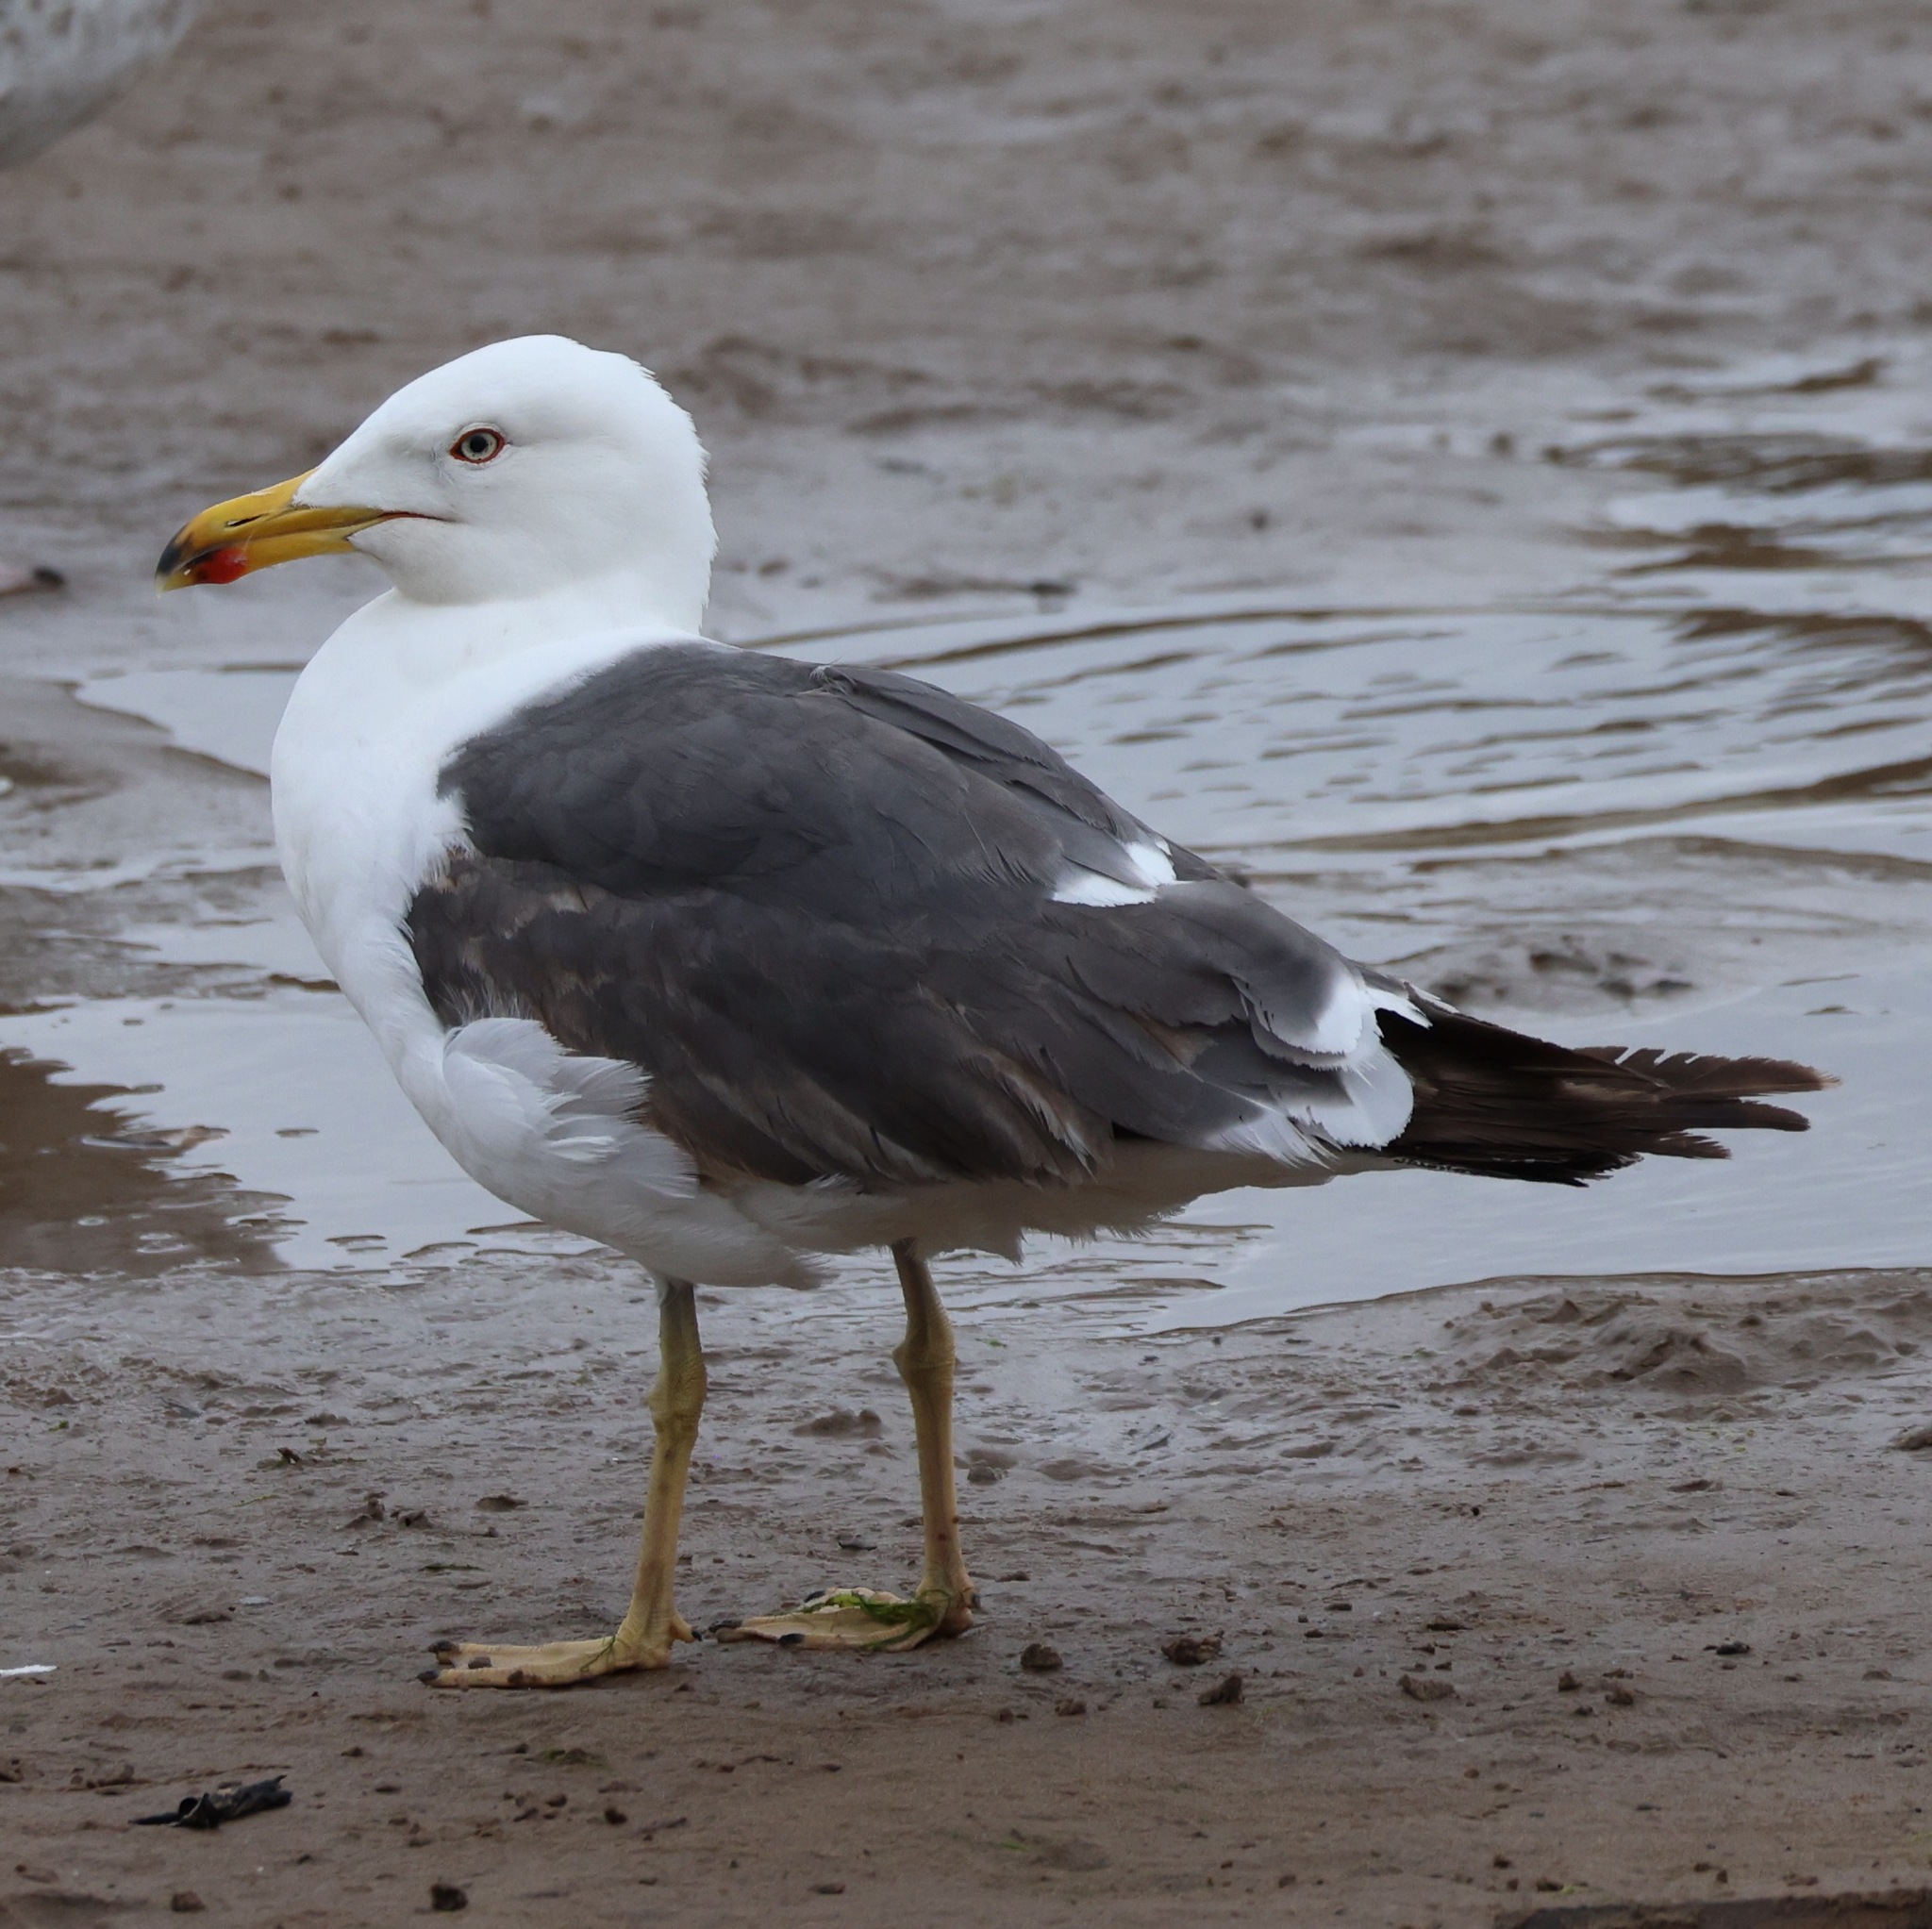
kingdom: Animalia
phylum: Chordata
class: Aves
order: Charadriiformes
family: Laridae
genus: Larus
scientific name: Larus fuscus
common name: Lesser black-backed gull
